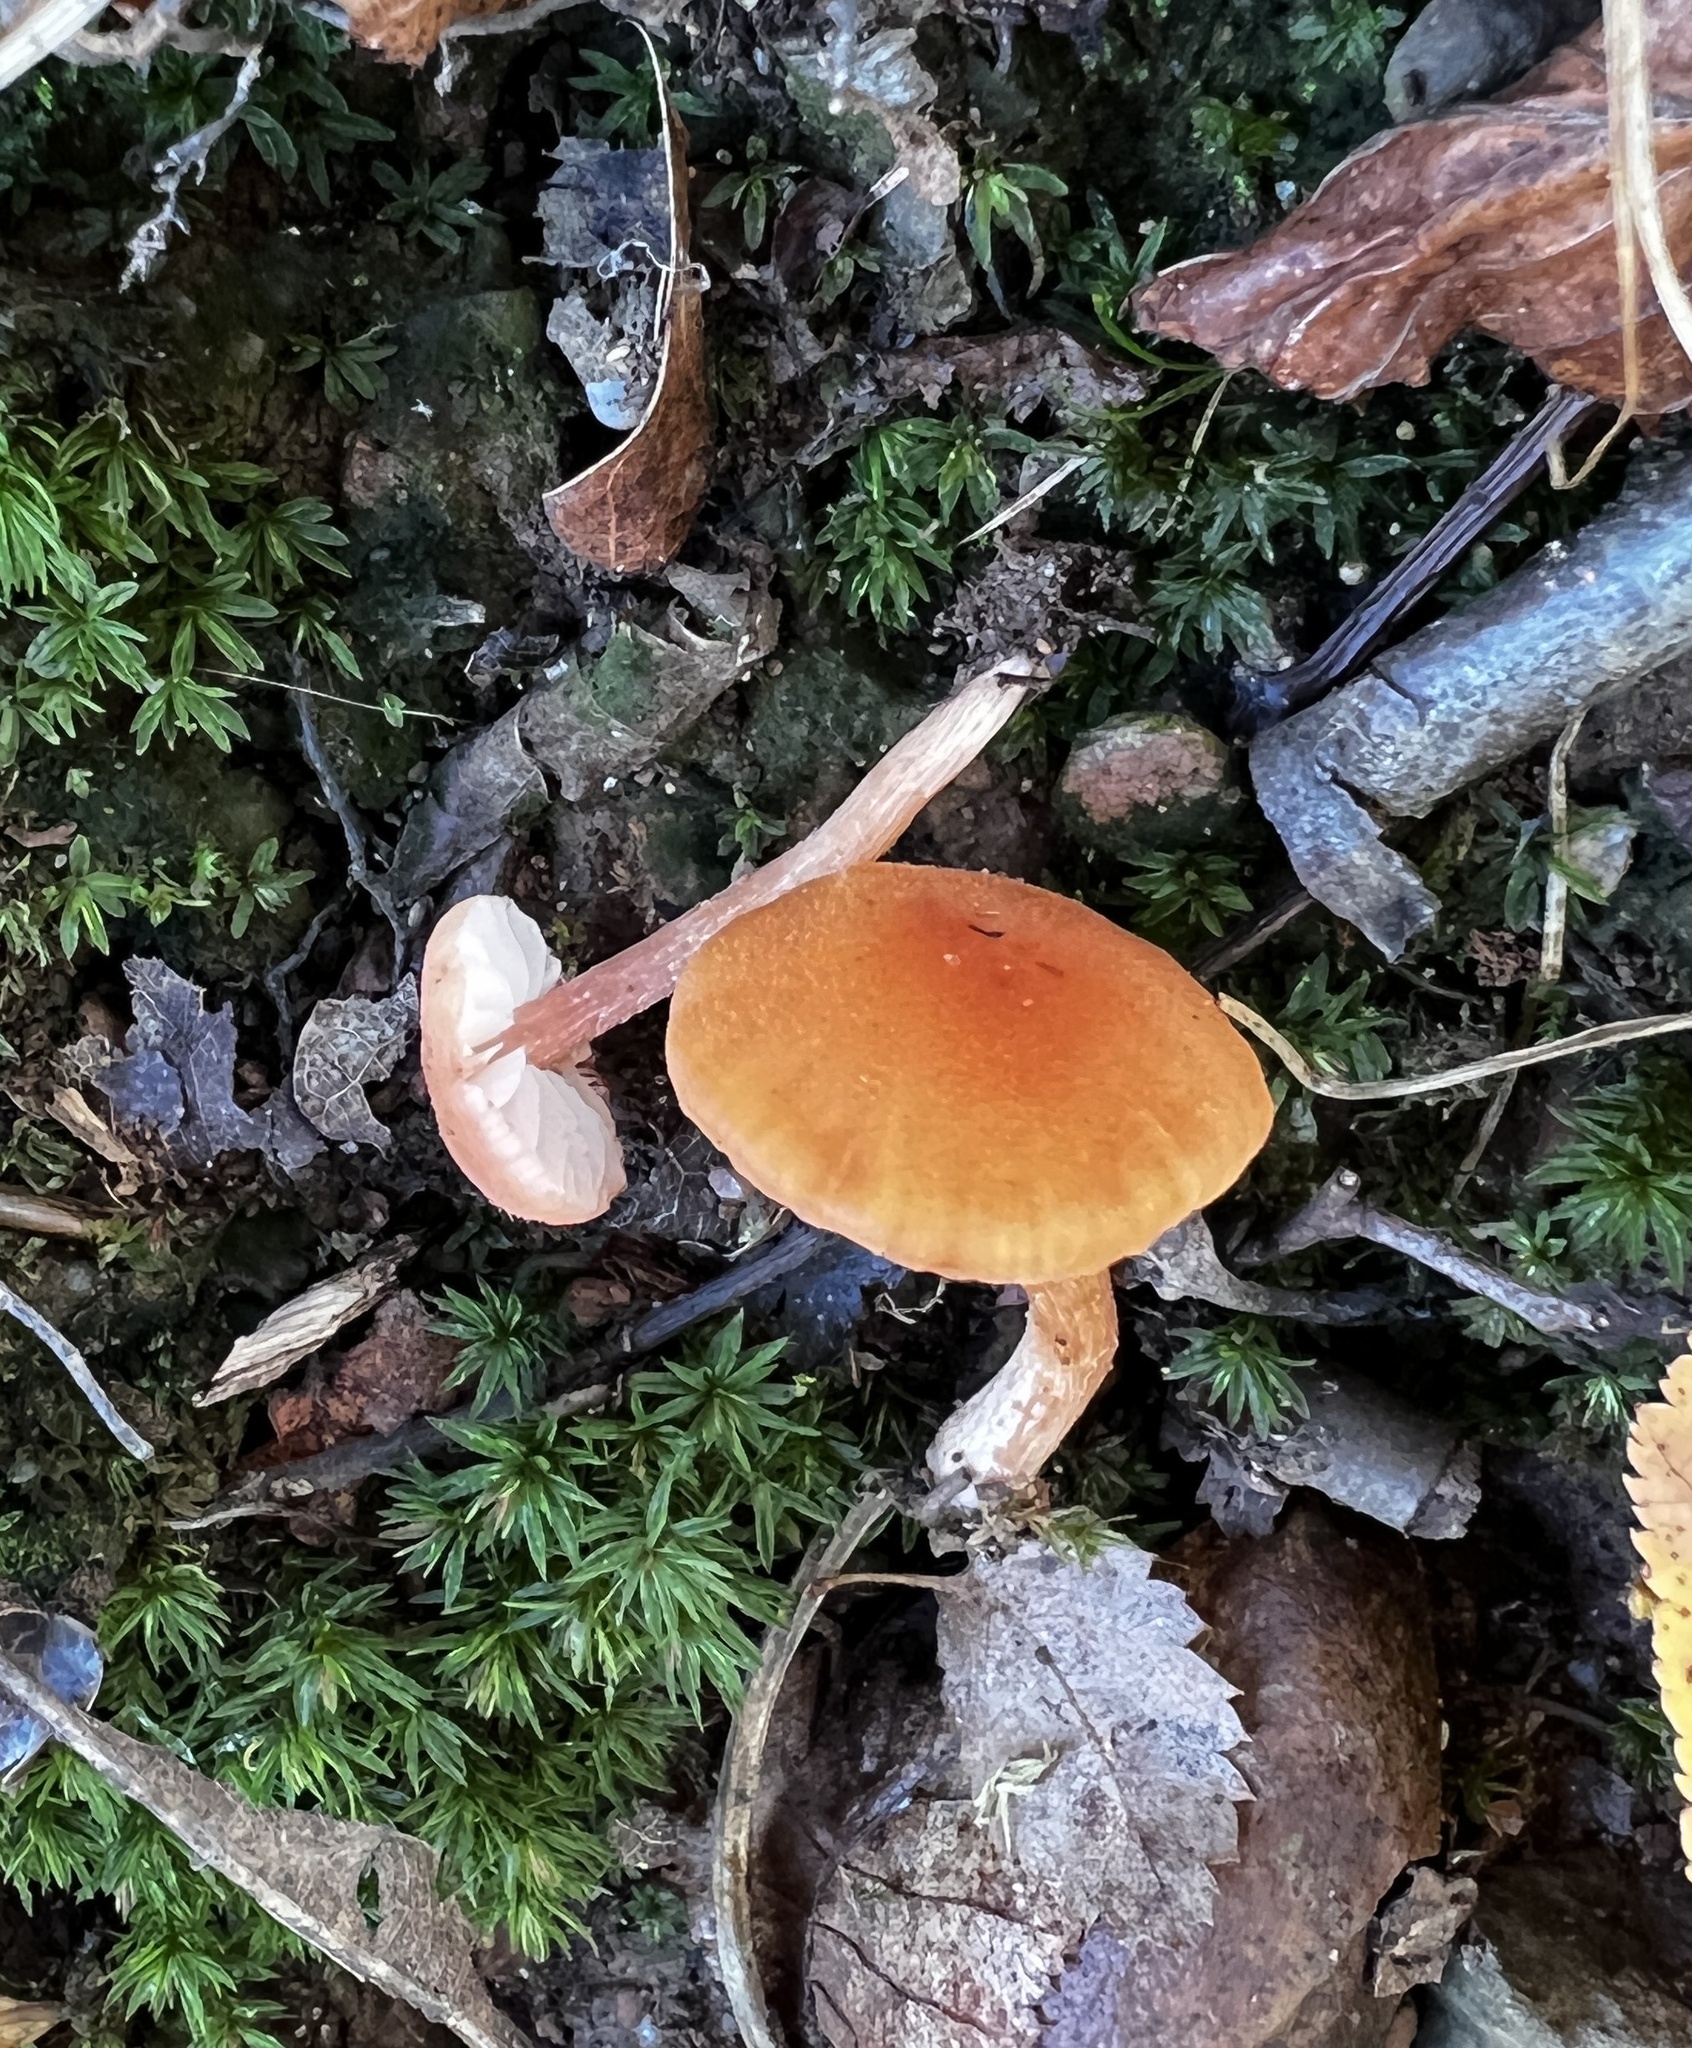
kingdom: Fungi
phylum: Basidiomycota
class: Agaricomycetes
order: Agaricales
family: Hydnangiaceae
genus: Laccaria
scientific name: Laccaria trichodermophora
